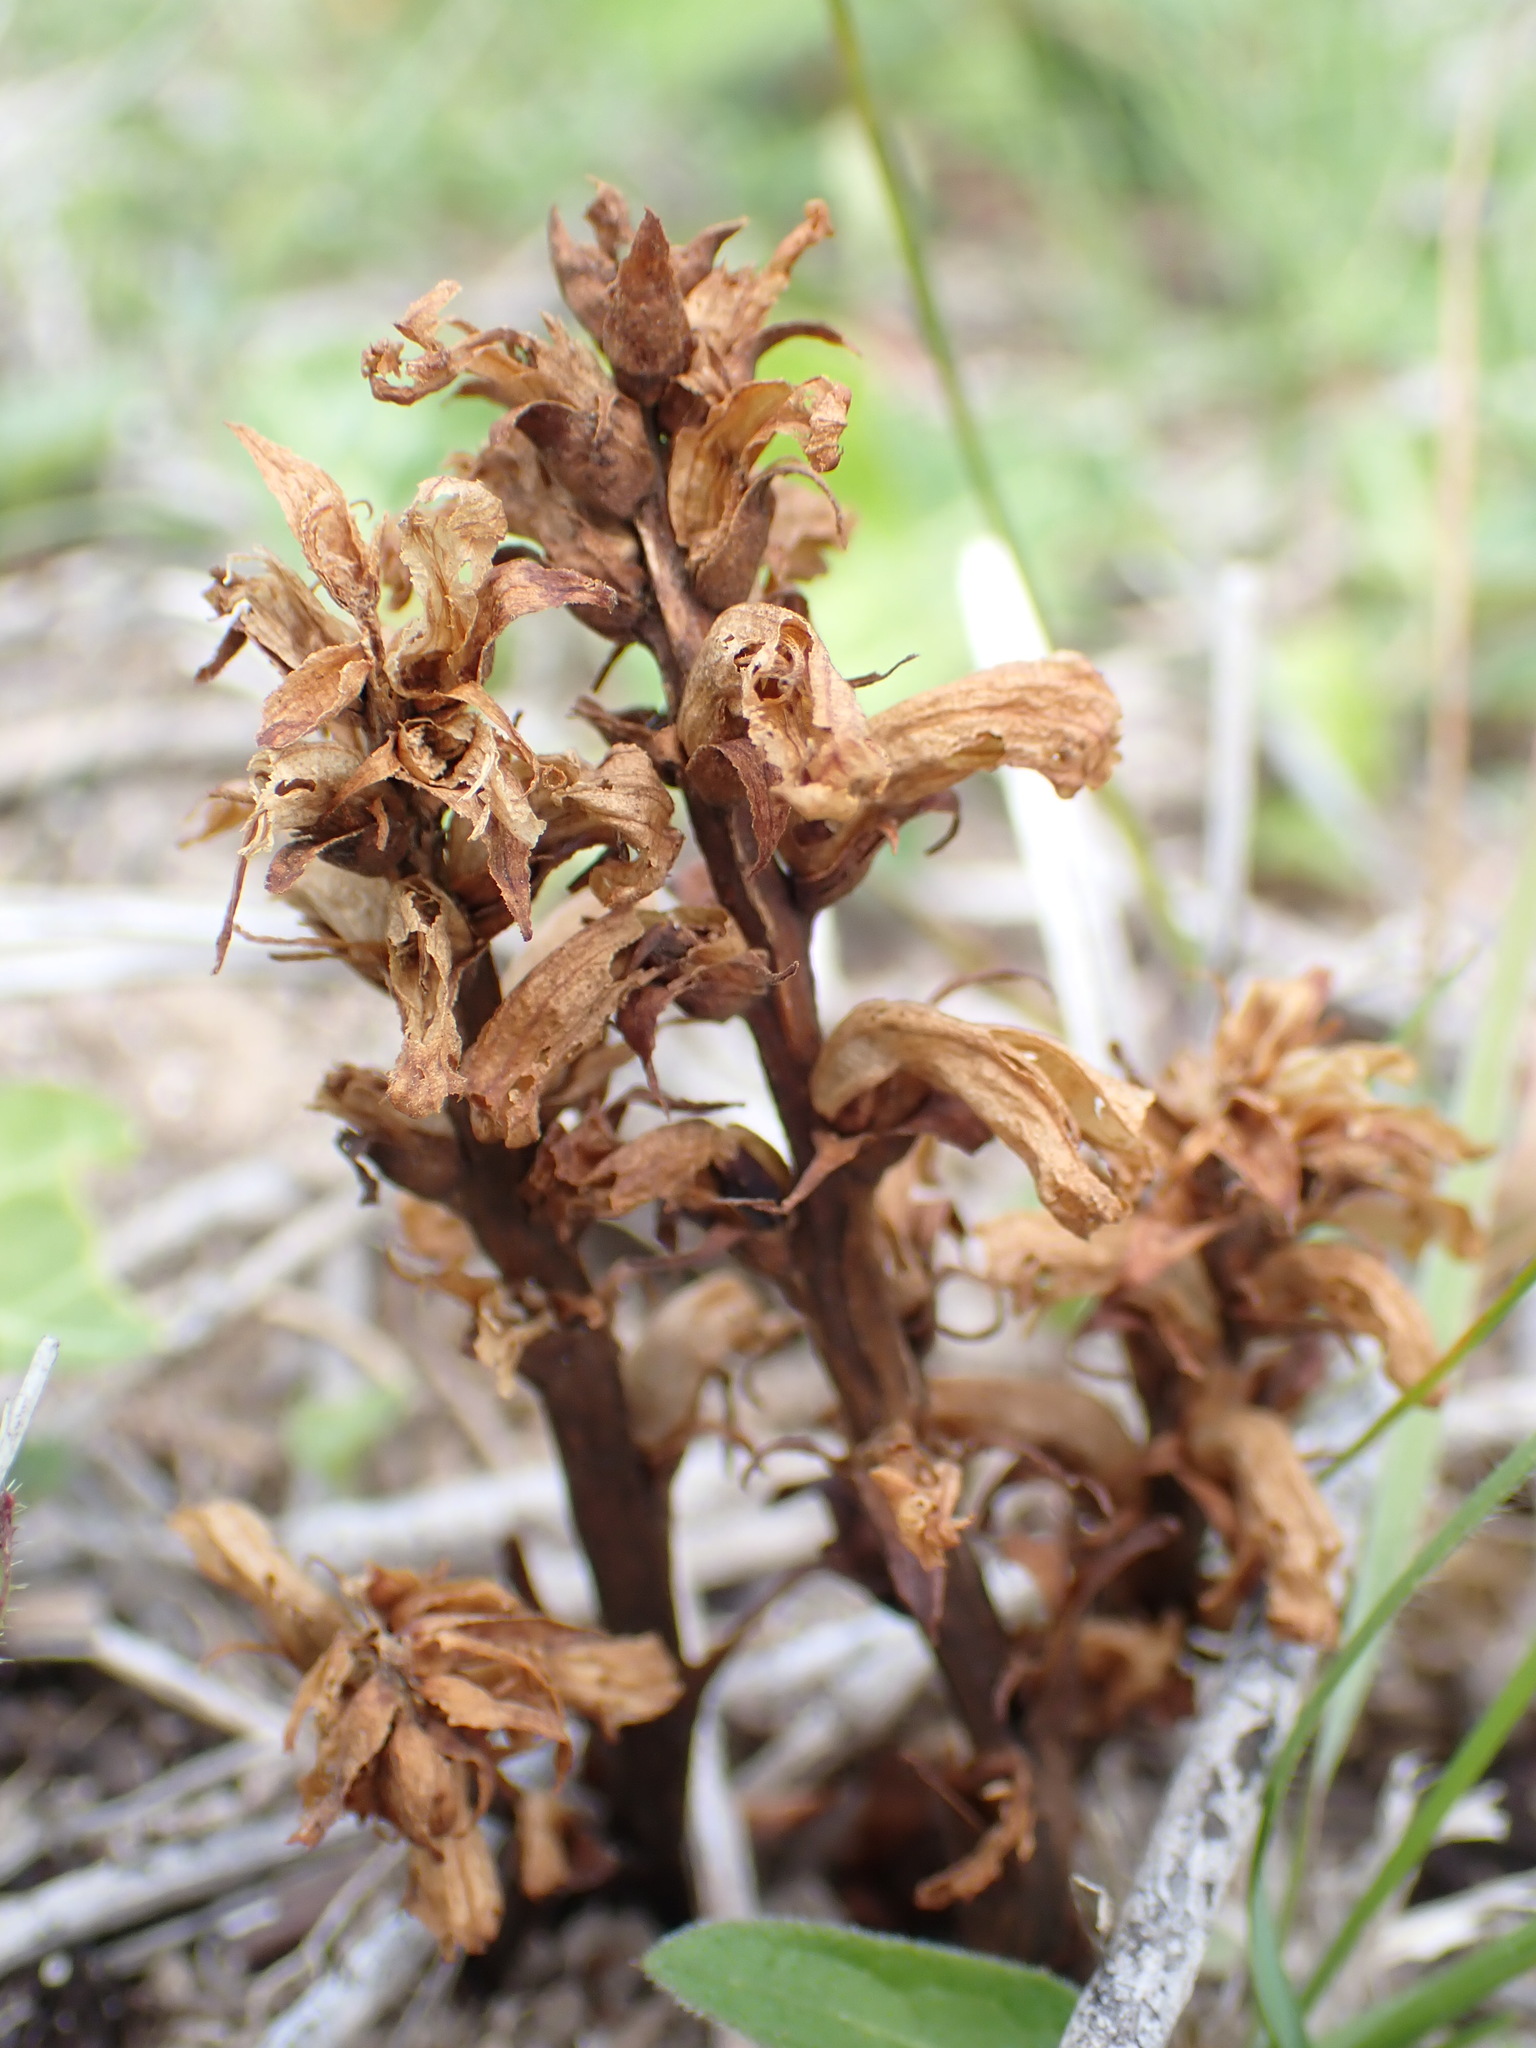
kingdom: Plantae
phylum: Tracheophyta
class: Magnoliopsida
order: Lamiales
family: Orobanchaceae
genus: Orobanche
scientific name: Orobanche hederae
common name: Ivy broomrape
